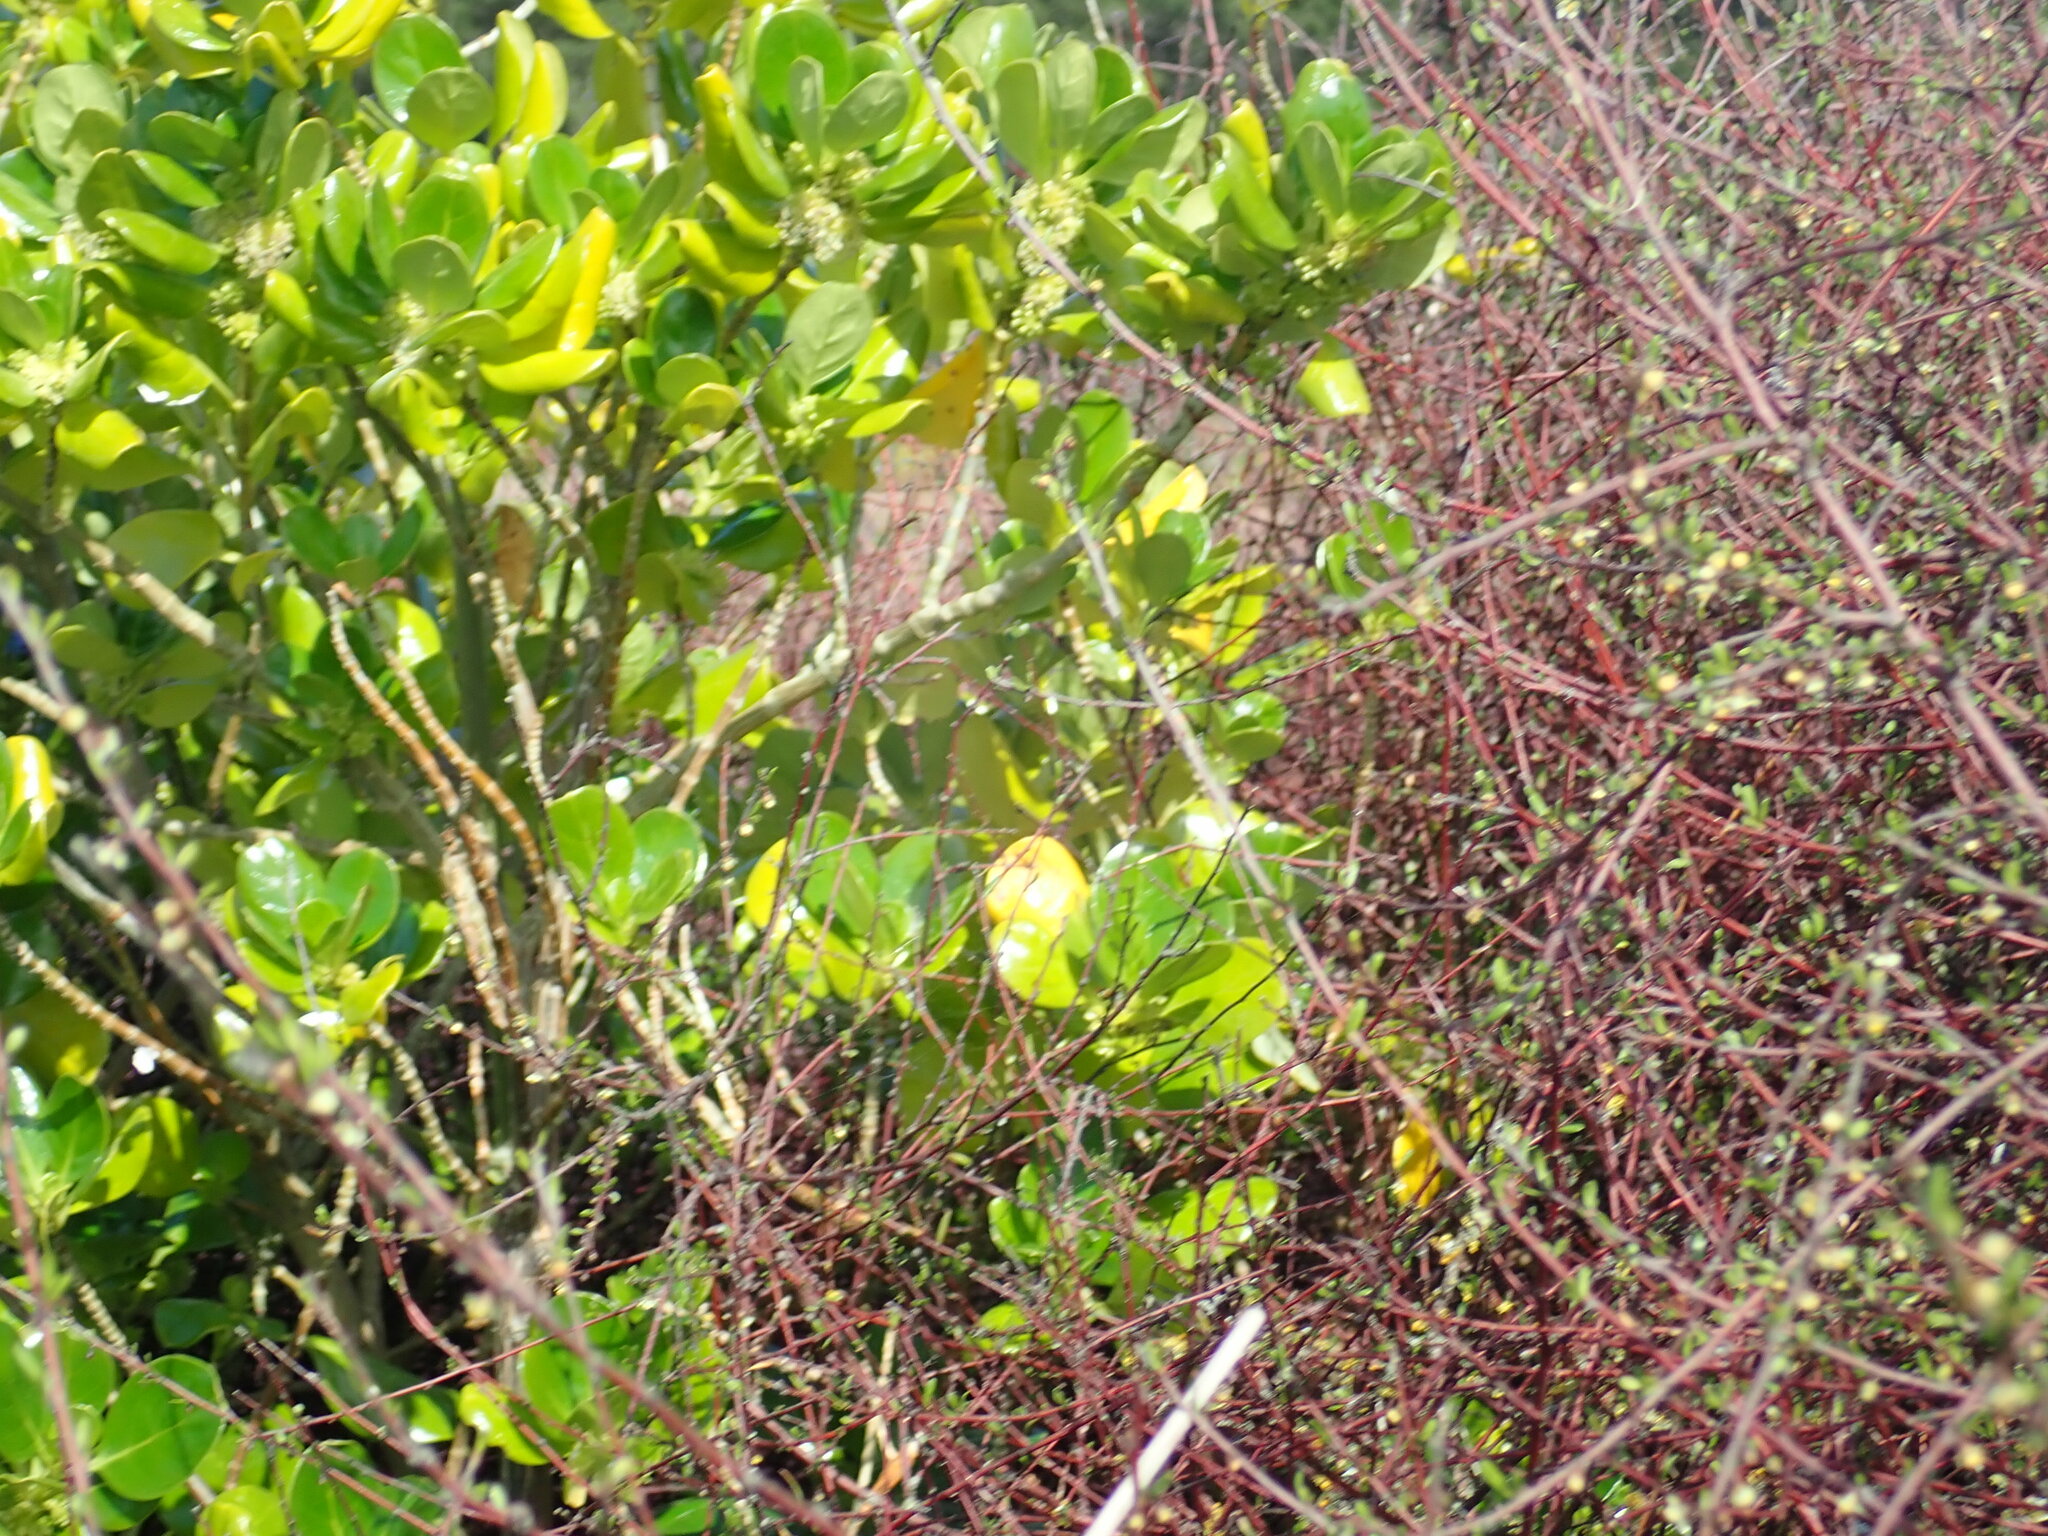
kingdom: Plantae
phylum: Tracheophyta
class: Magnoliopsida
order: Gentianales
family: Rubiaceae
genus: Coprosma
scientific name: Coprosma repens
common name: Tree bedstraw
